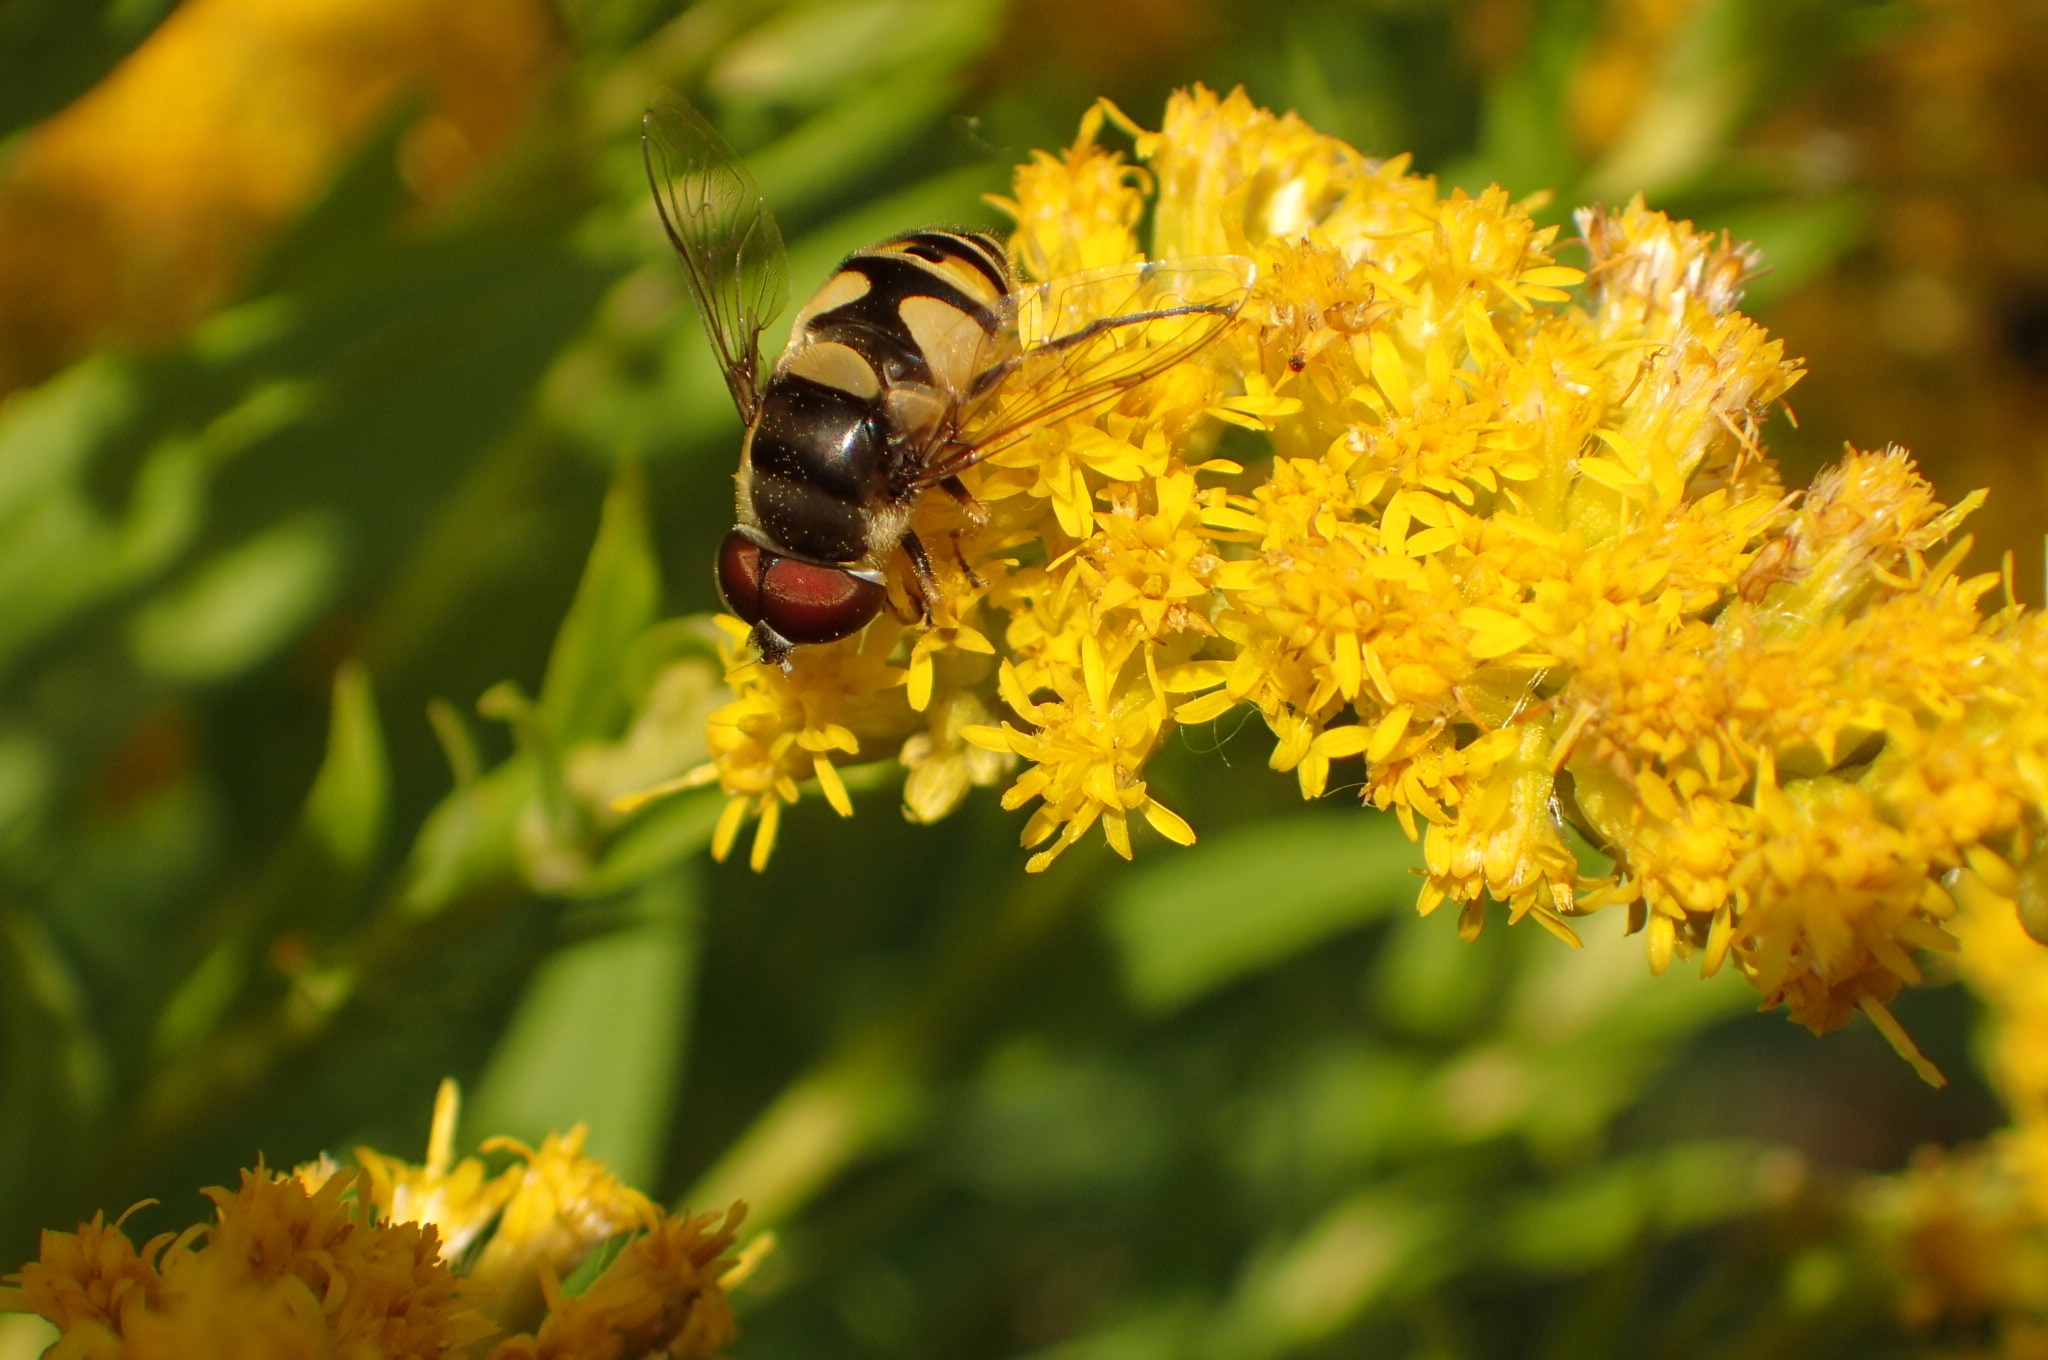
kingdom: Animalia
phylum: Arthropoda
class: Insecta
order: Diptera
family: Syrphidae
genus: Eristalis
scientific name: Eristalis transversa
